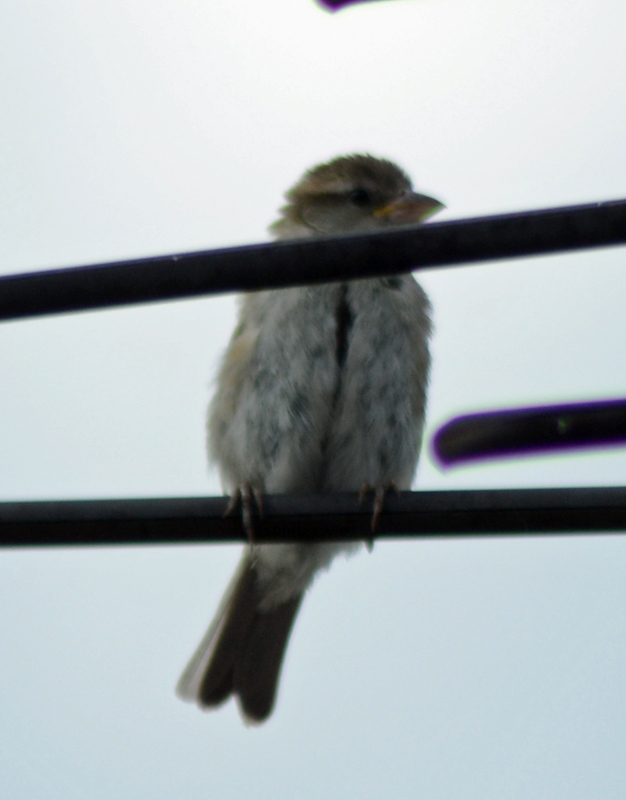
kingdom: Animalia
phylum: Chordata
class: Aves
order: Passeriformes
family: Passeridae
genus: Passer
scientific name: Passer domesticus
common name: House sparrow
